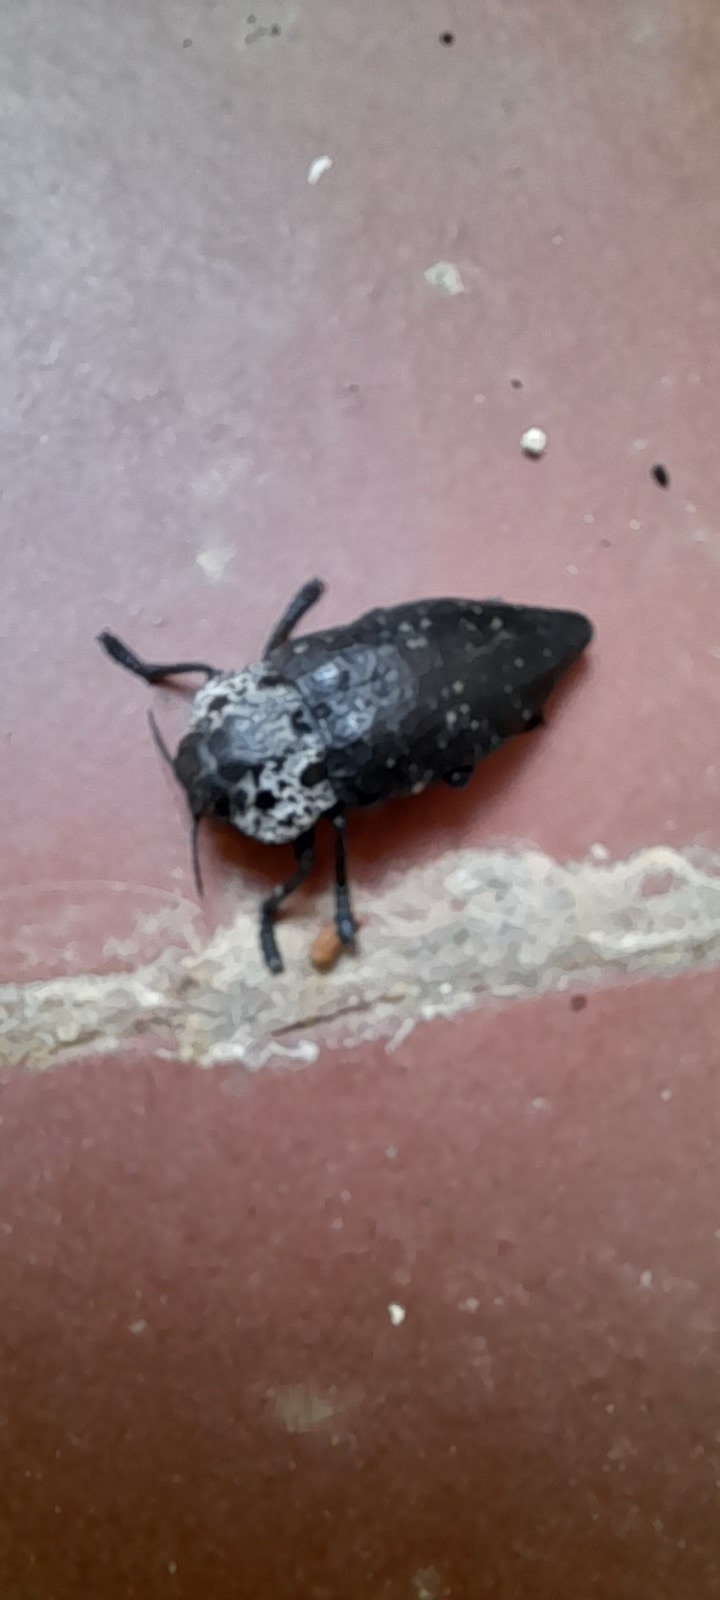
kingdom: Animalia
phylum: Arthropoda
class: Insecta
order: Coleoptera
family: Buprestidae
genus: Capnodis
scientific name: Capnodis tenebrionis
